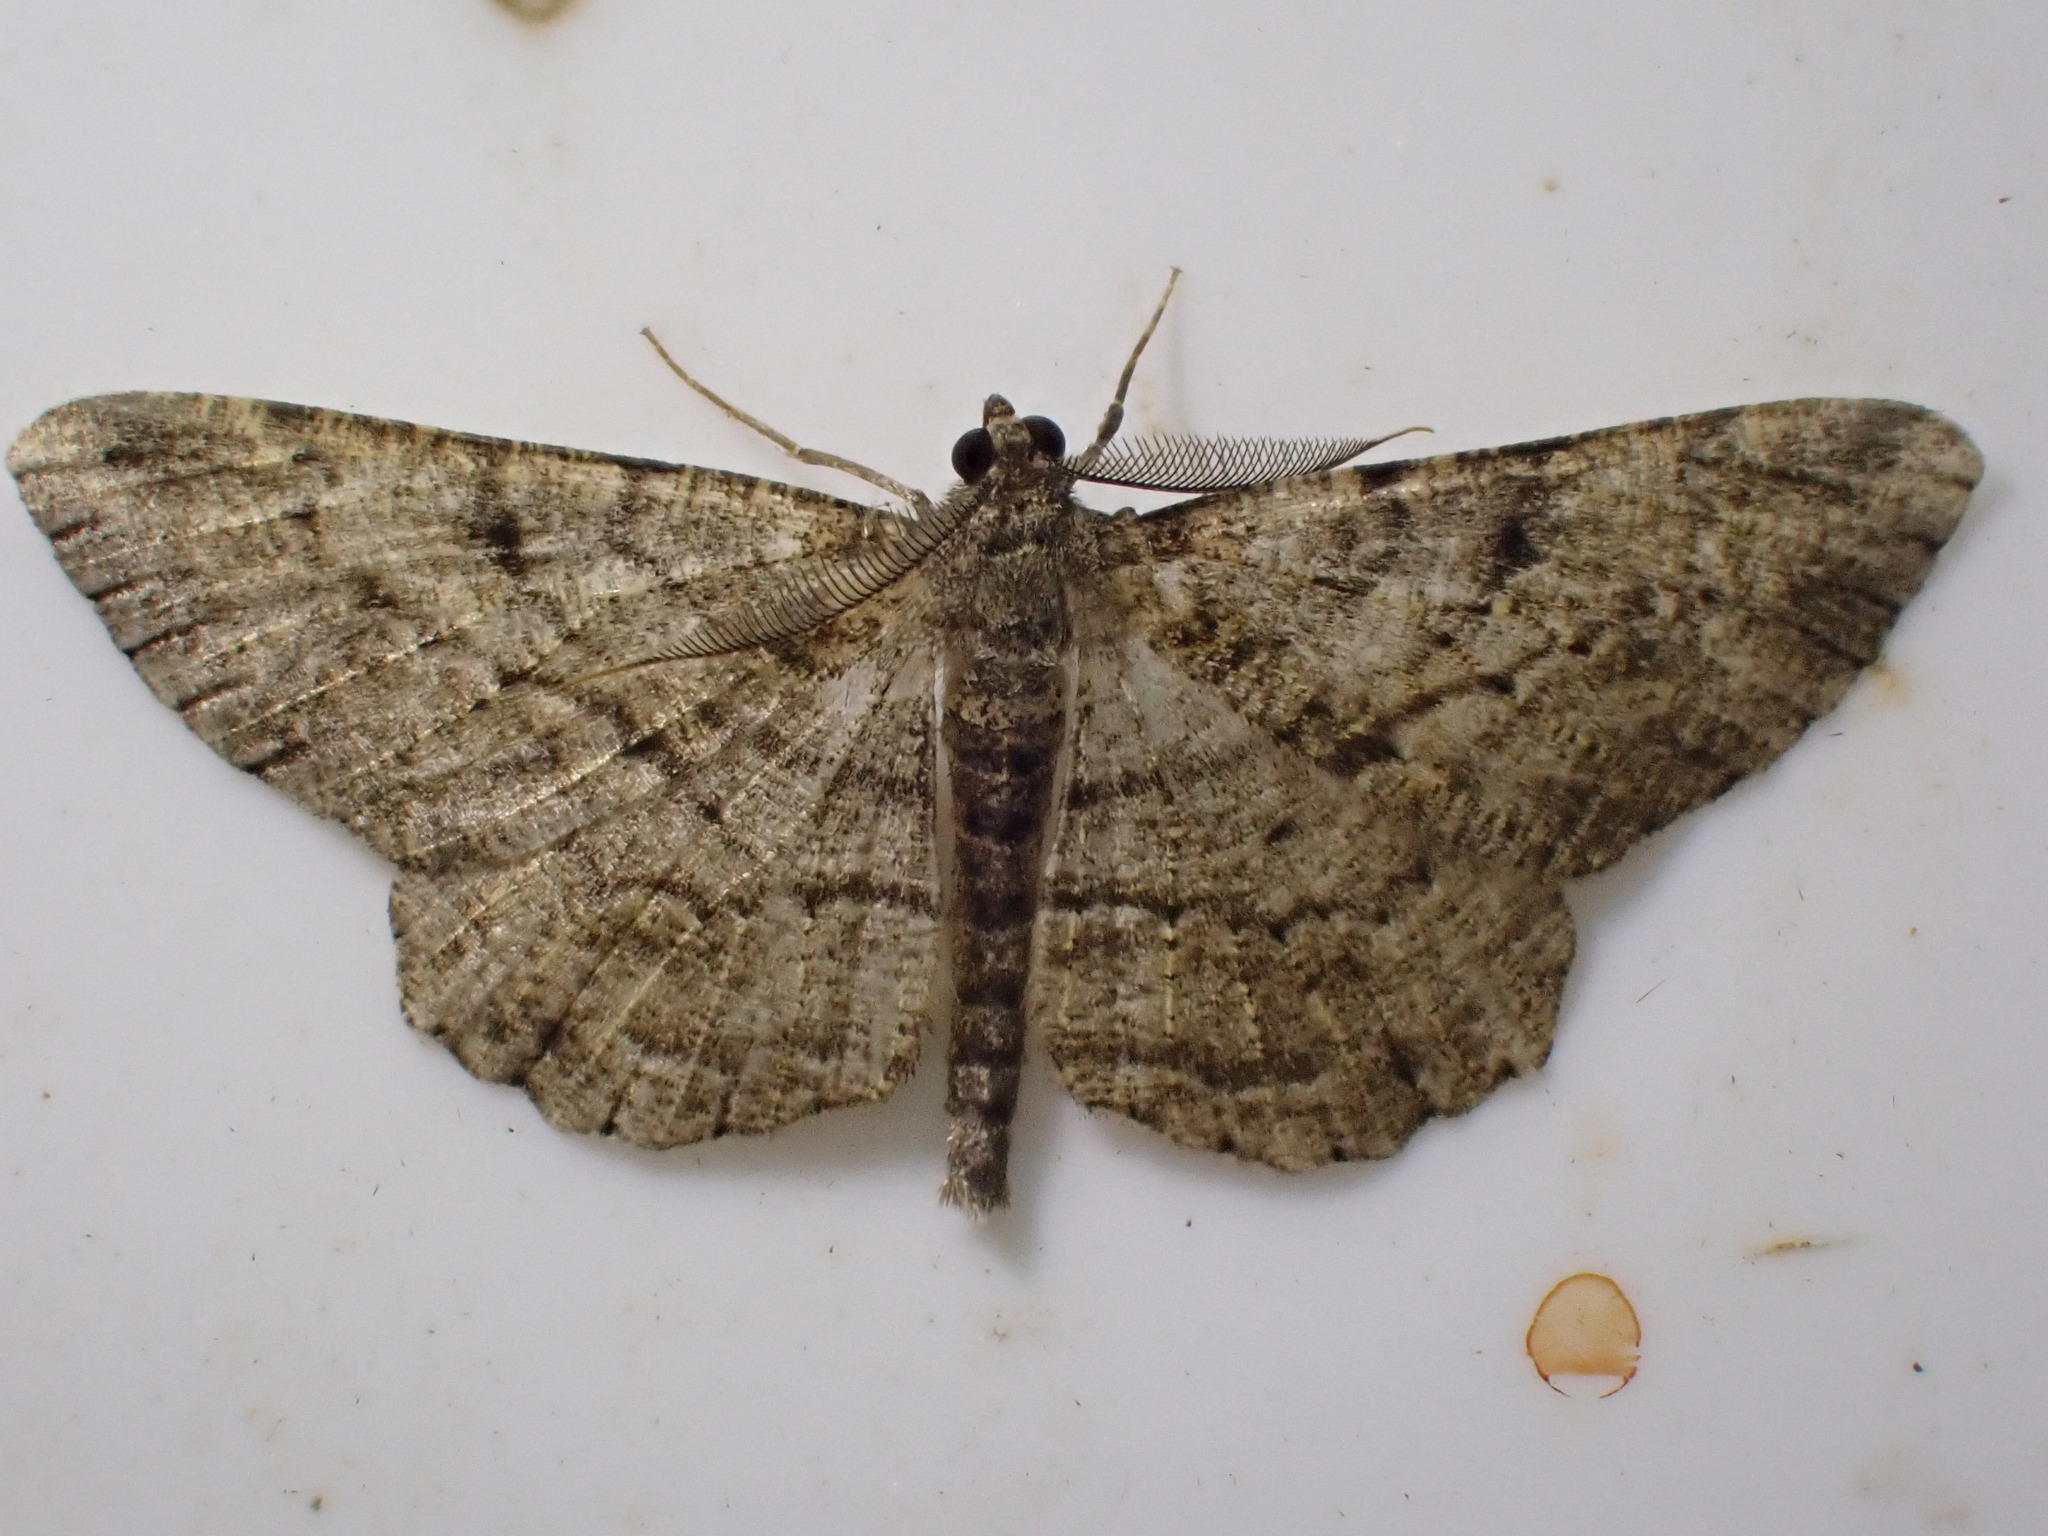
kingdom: Animalia
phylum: Arthropoda
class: Insecta
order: Lepidoptera
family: Geometridae
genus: Peribatodes
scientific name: Peribatodes rhomboidaria
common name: Willow beauty
